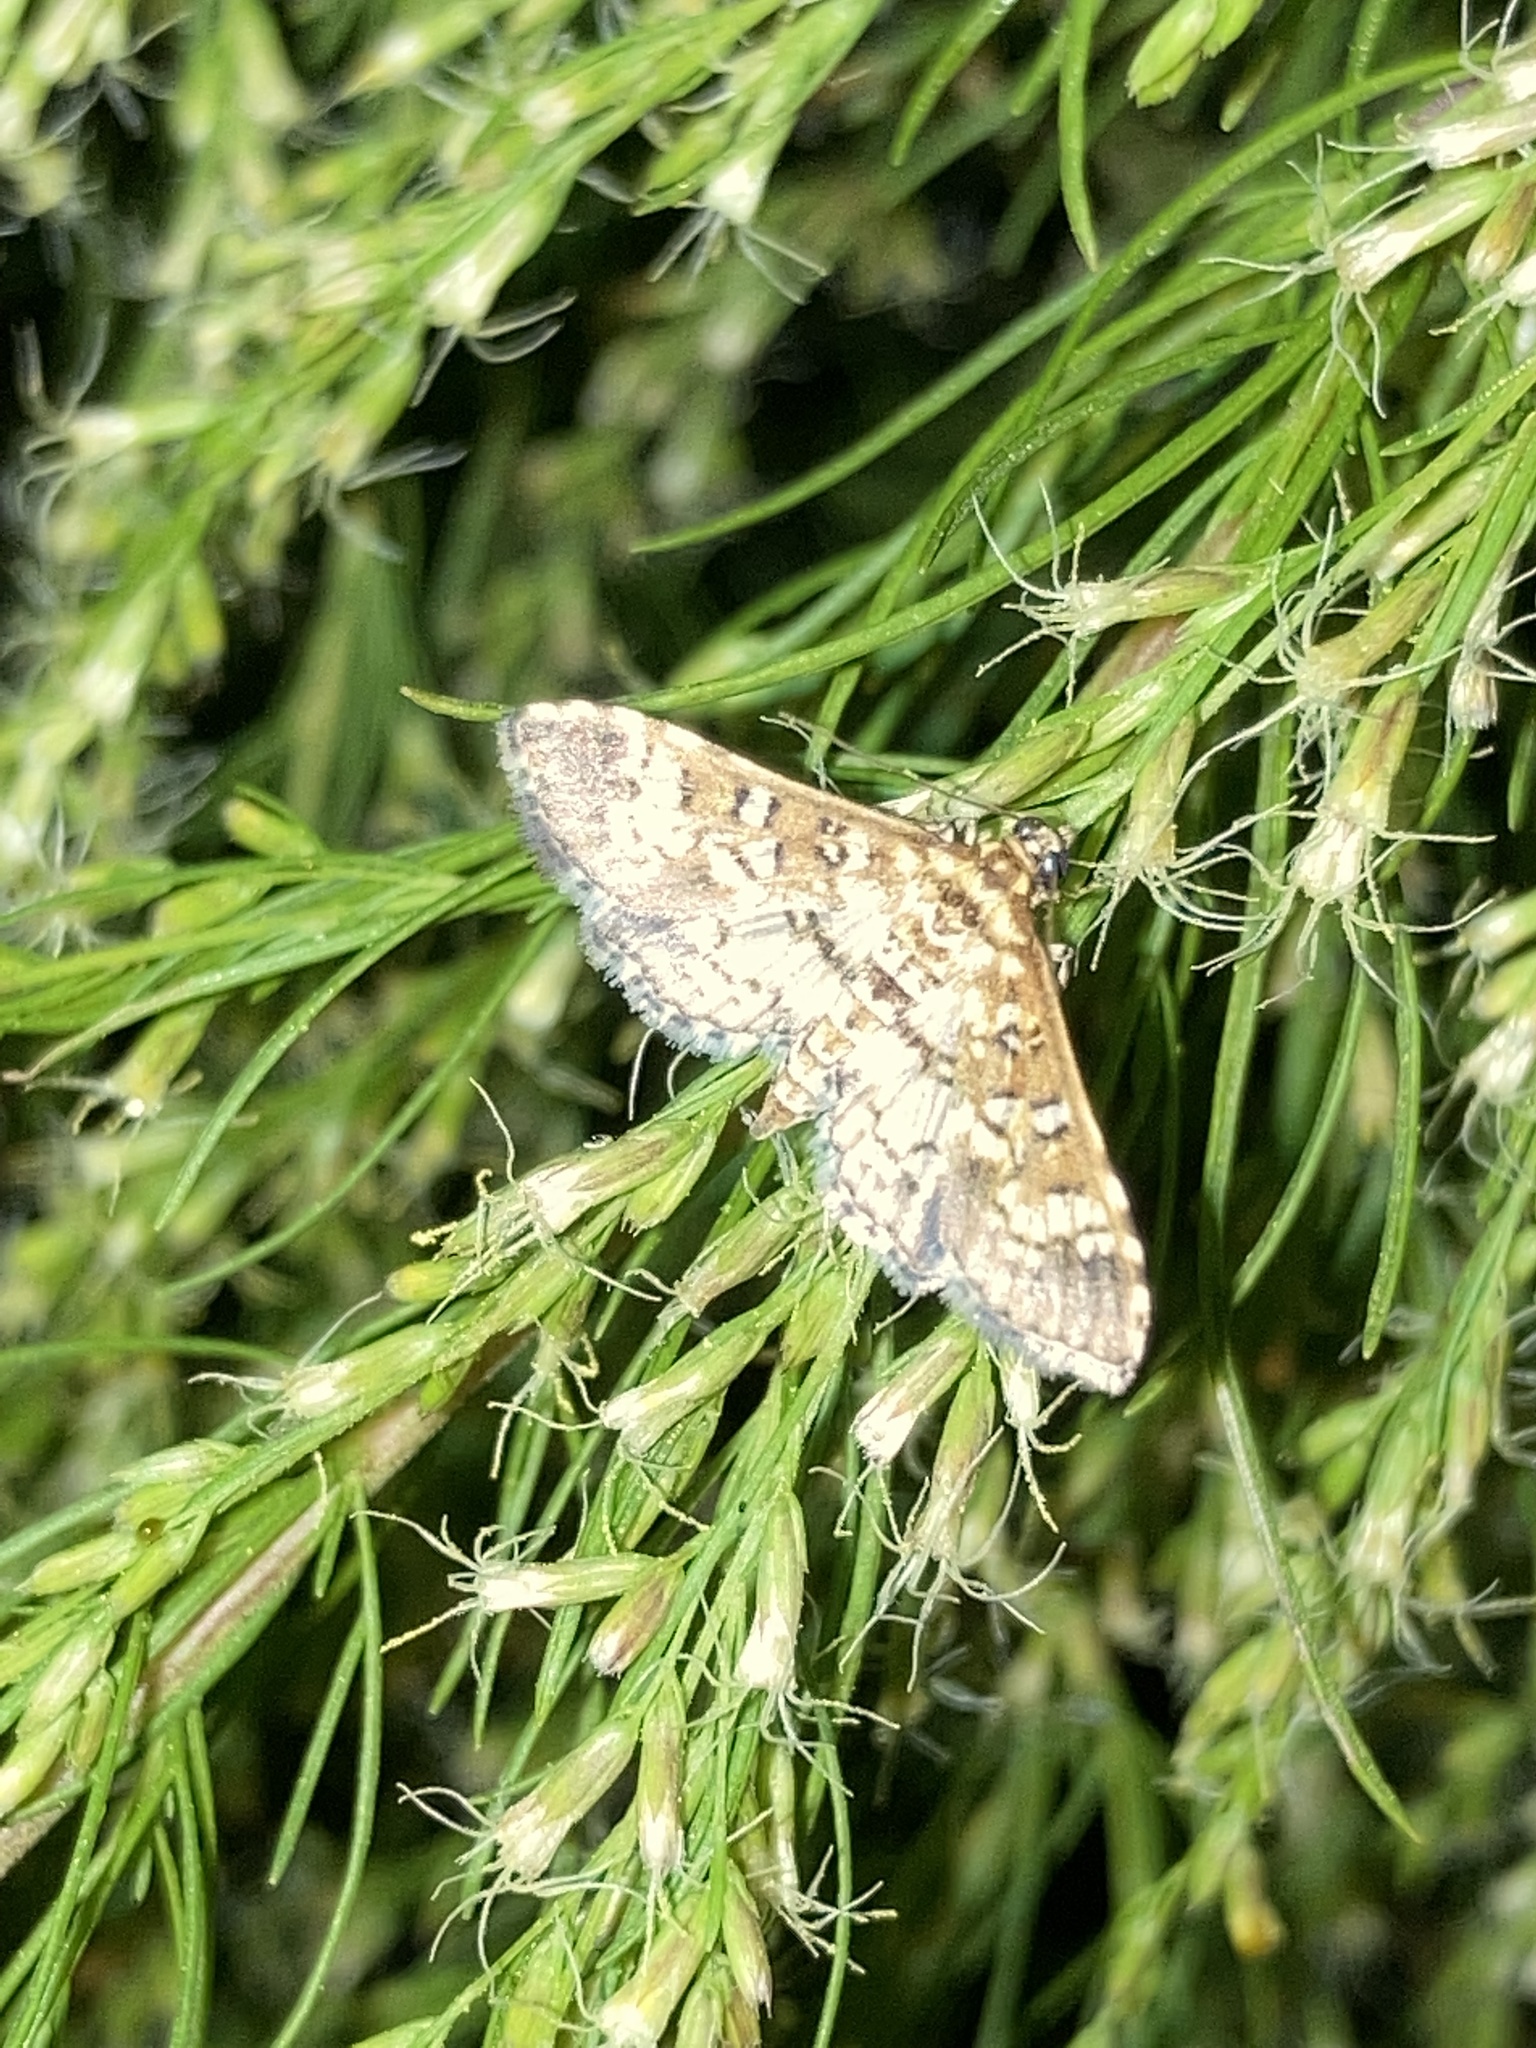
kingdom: Animalia
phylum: Arthropoda
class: Insecta
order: Lepidoptera
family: Crambidae
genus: Samea
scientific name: Samea ecclesialis
